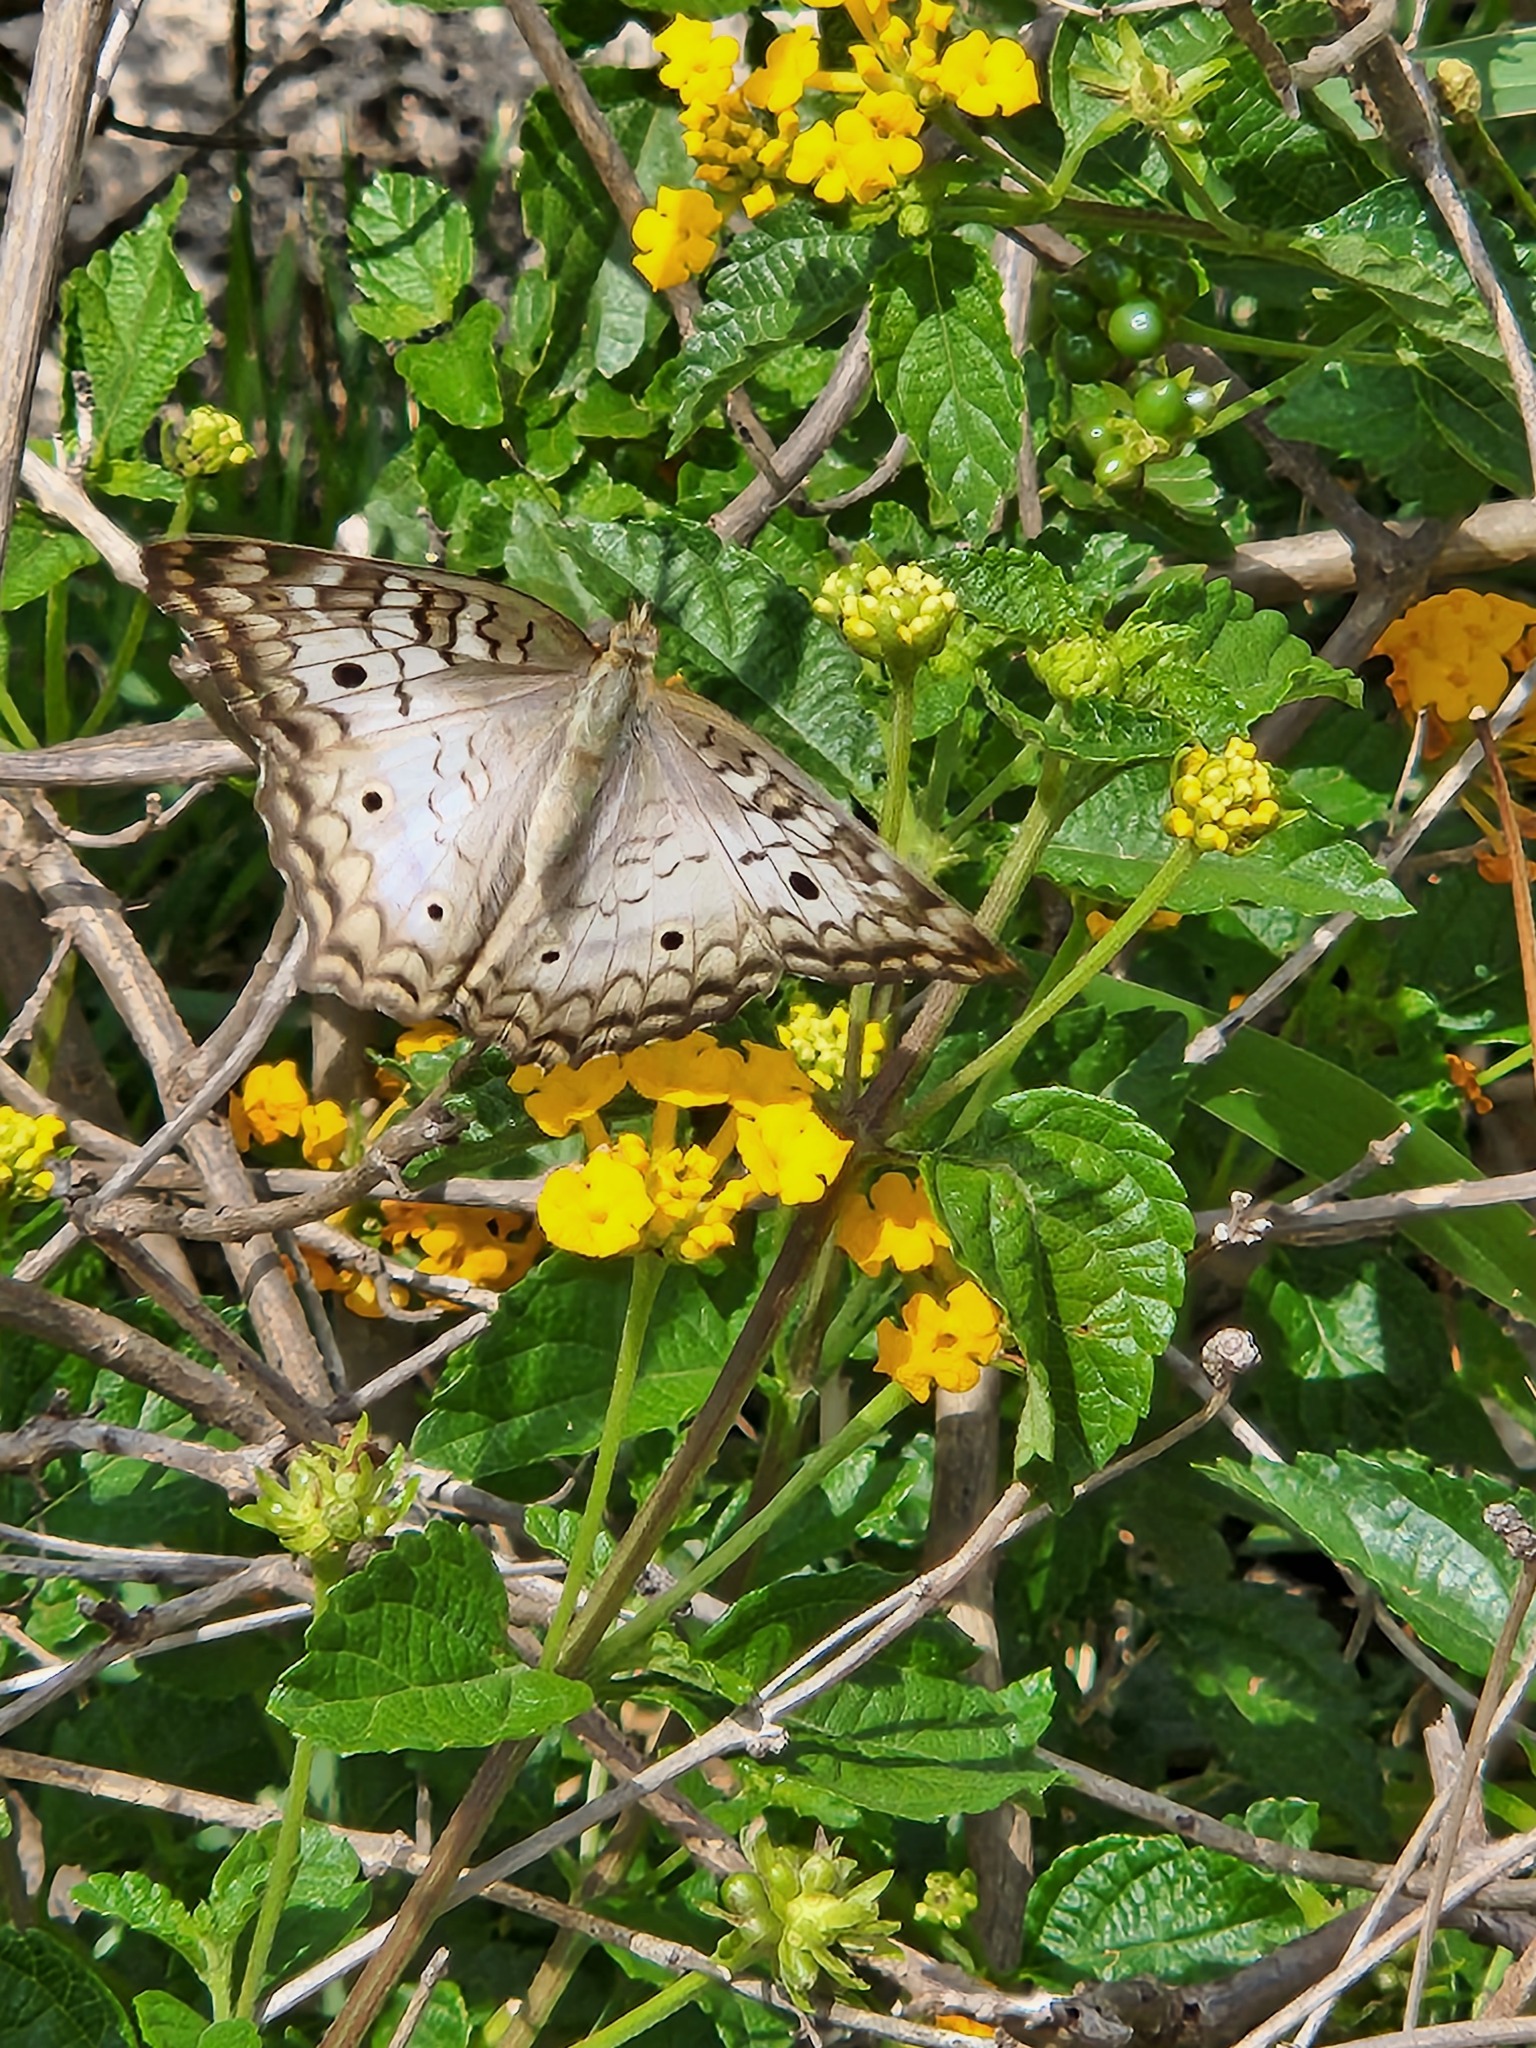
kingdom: Animalia
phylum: Arthropoda
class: Insecta
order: Lepidoptera
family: Nymphalidae
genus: Anartia
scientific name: Anartia jatrophae
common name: White peacock
